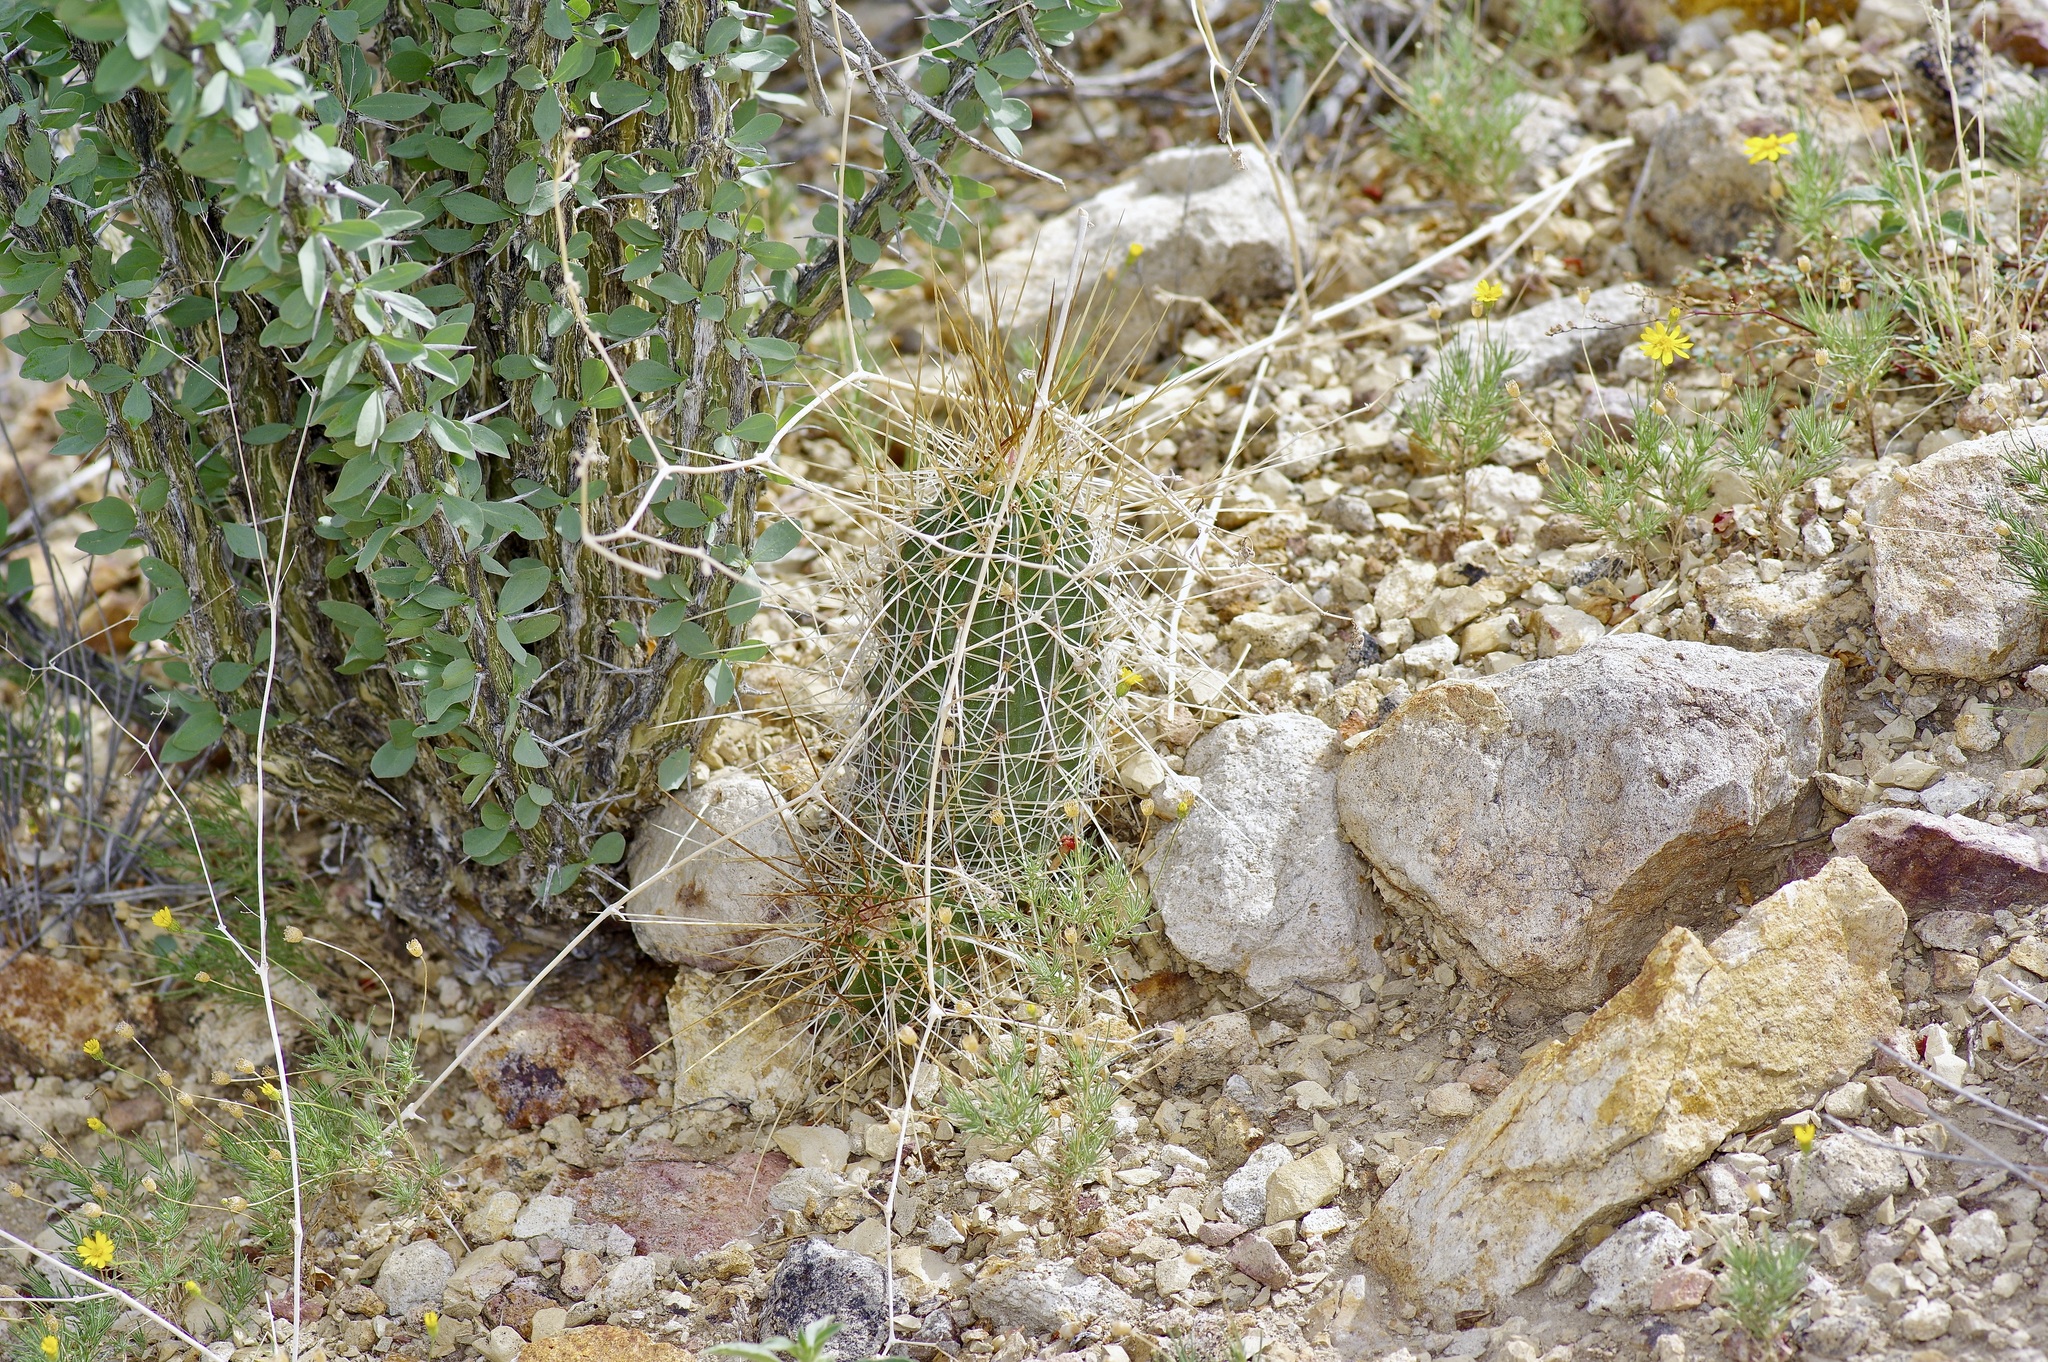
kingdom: Plantae
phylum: Tracheophyta
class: Magnoliopsida
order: Caryophyllales
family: Cactaceae
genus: Echinocereus
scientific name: Echinocereus stramineus
